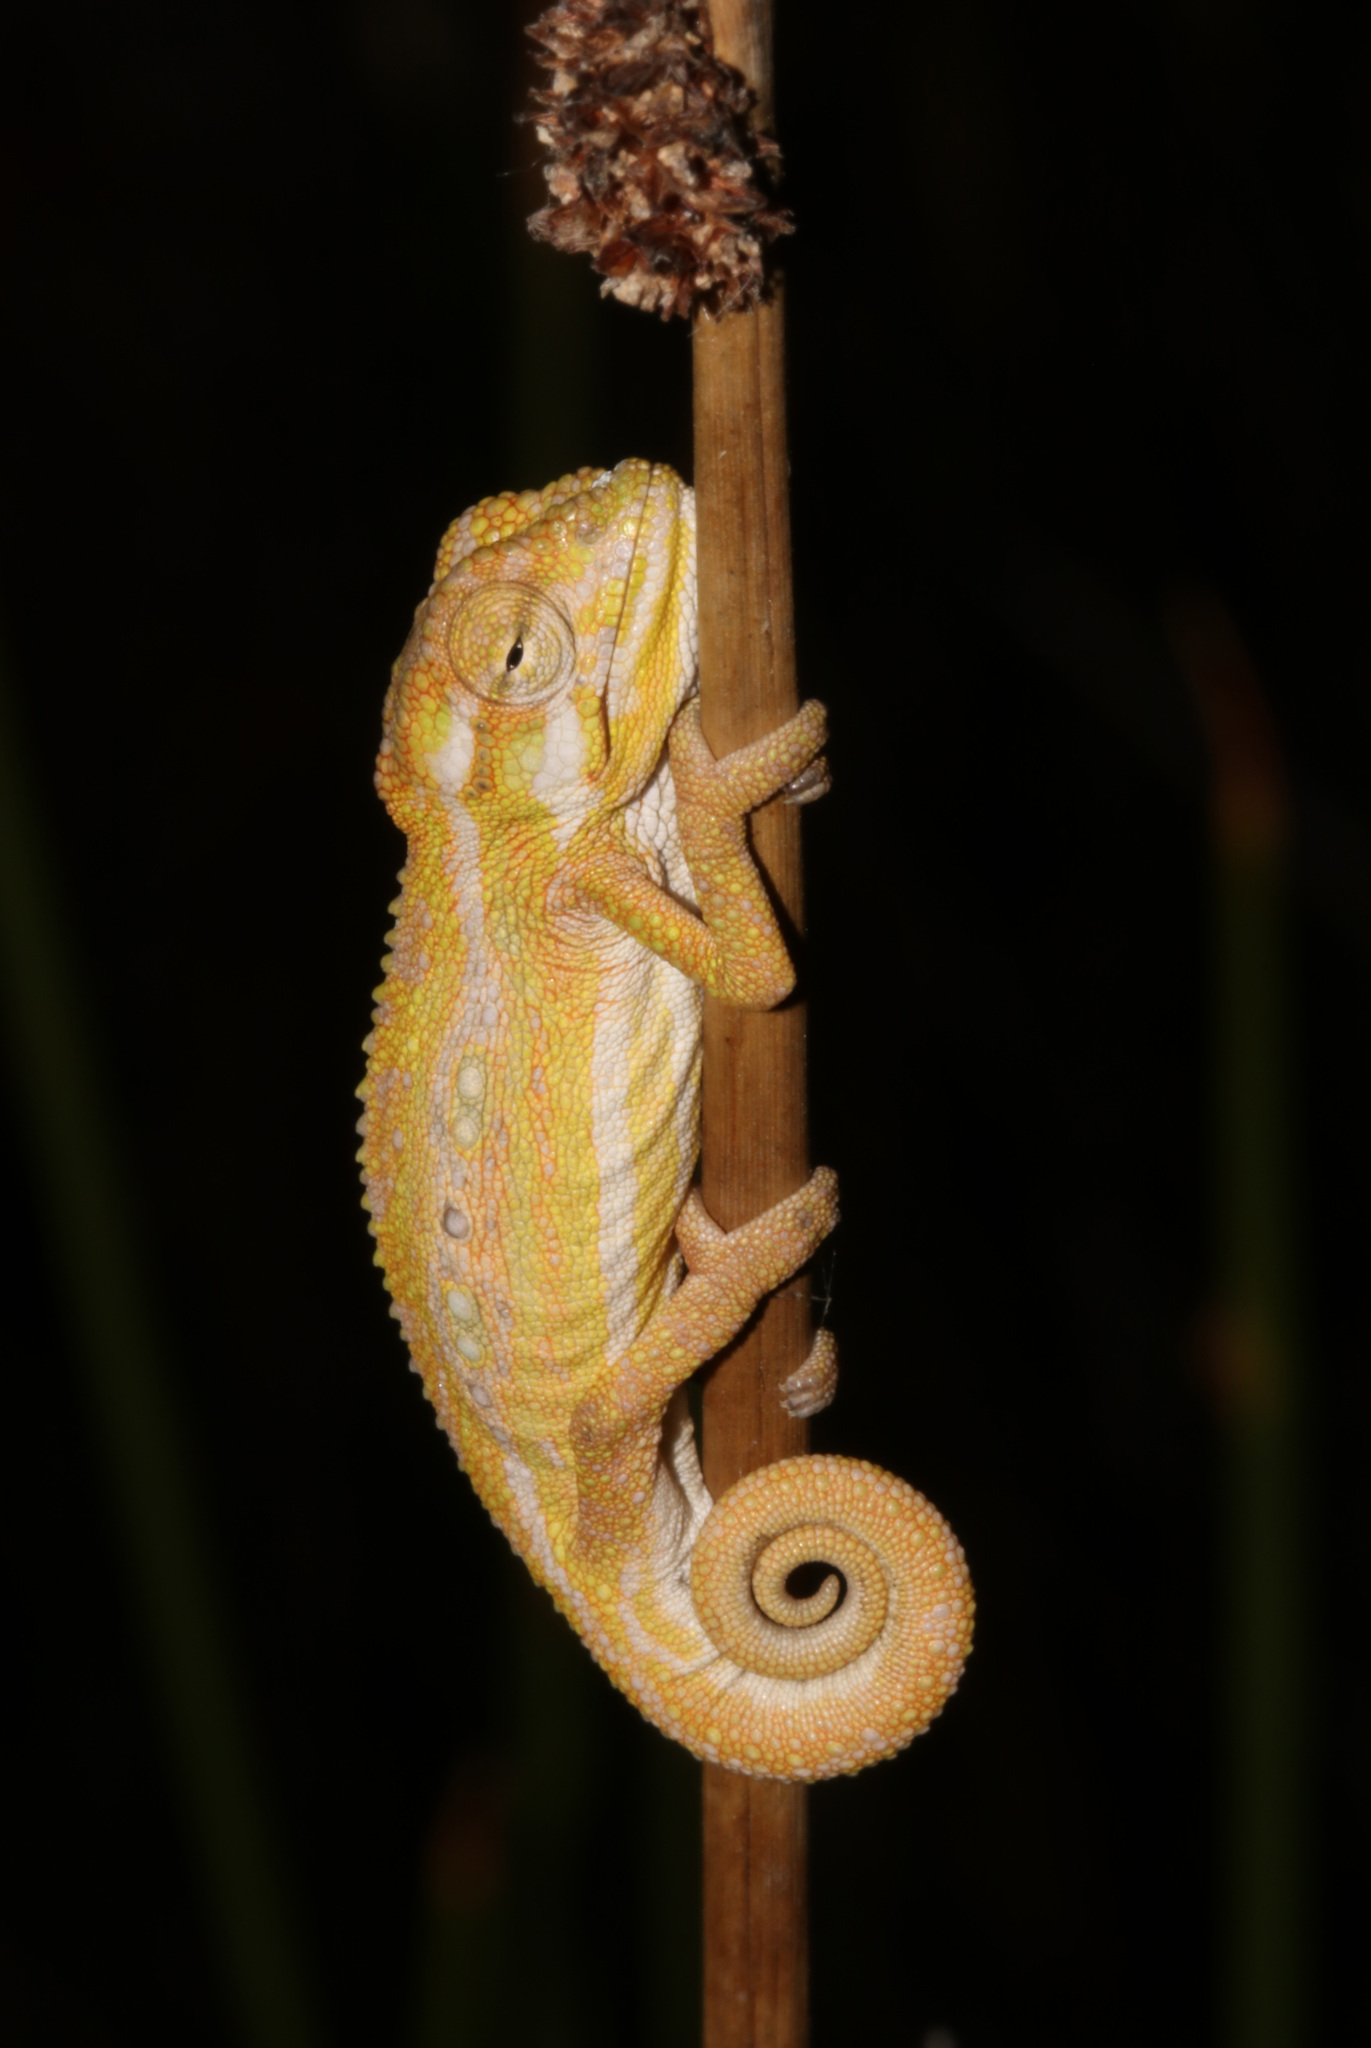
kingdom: Animalia
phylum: Chordata
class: Squamata
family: Chamaeleonidae
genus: Bradypodion
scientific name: Bradypodion pumilum
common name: Cape dwarf chameleon
